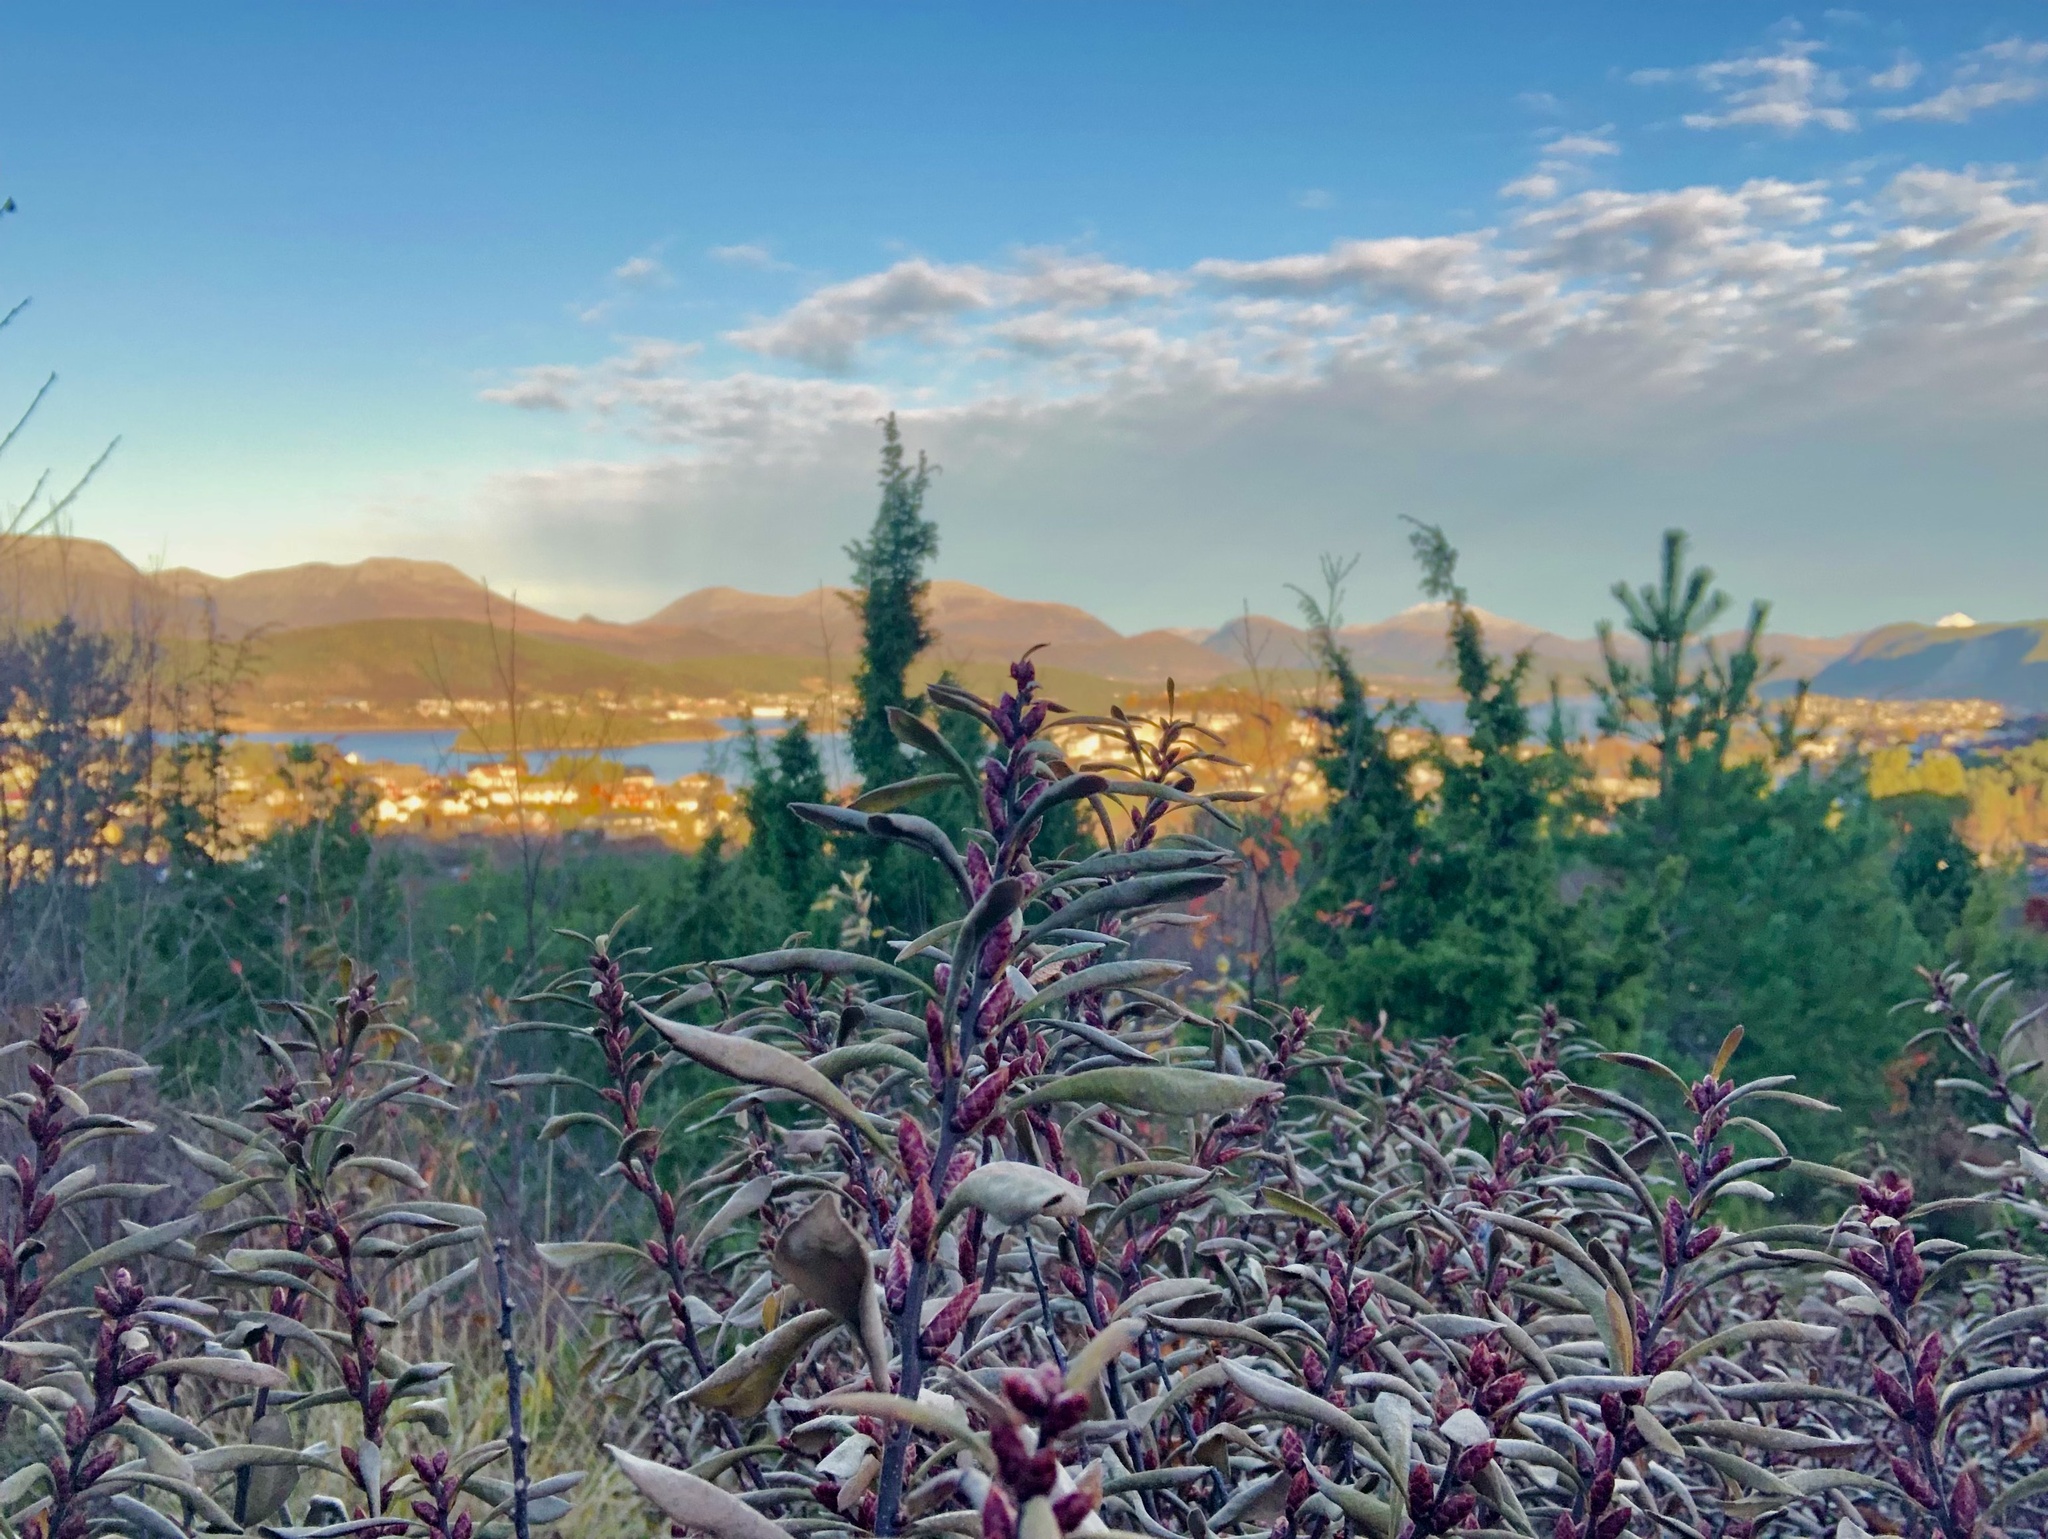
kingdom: Plantae
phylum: Tracheophyta
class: Magnoliopsida
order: Fagales
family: Myricaceae
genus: Myrica
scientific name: Myrica gale
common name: Sweet gale
